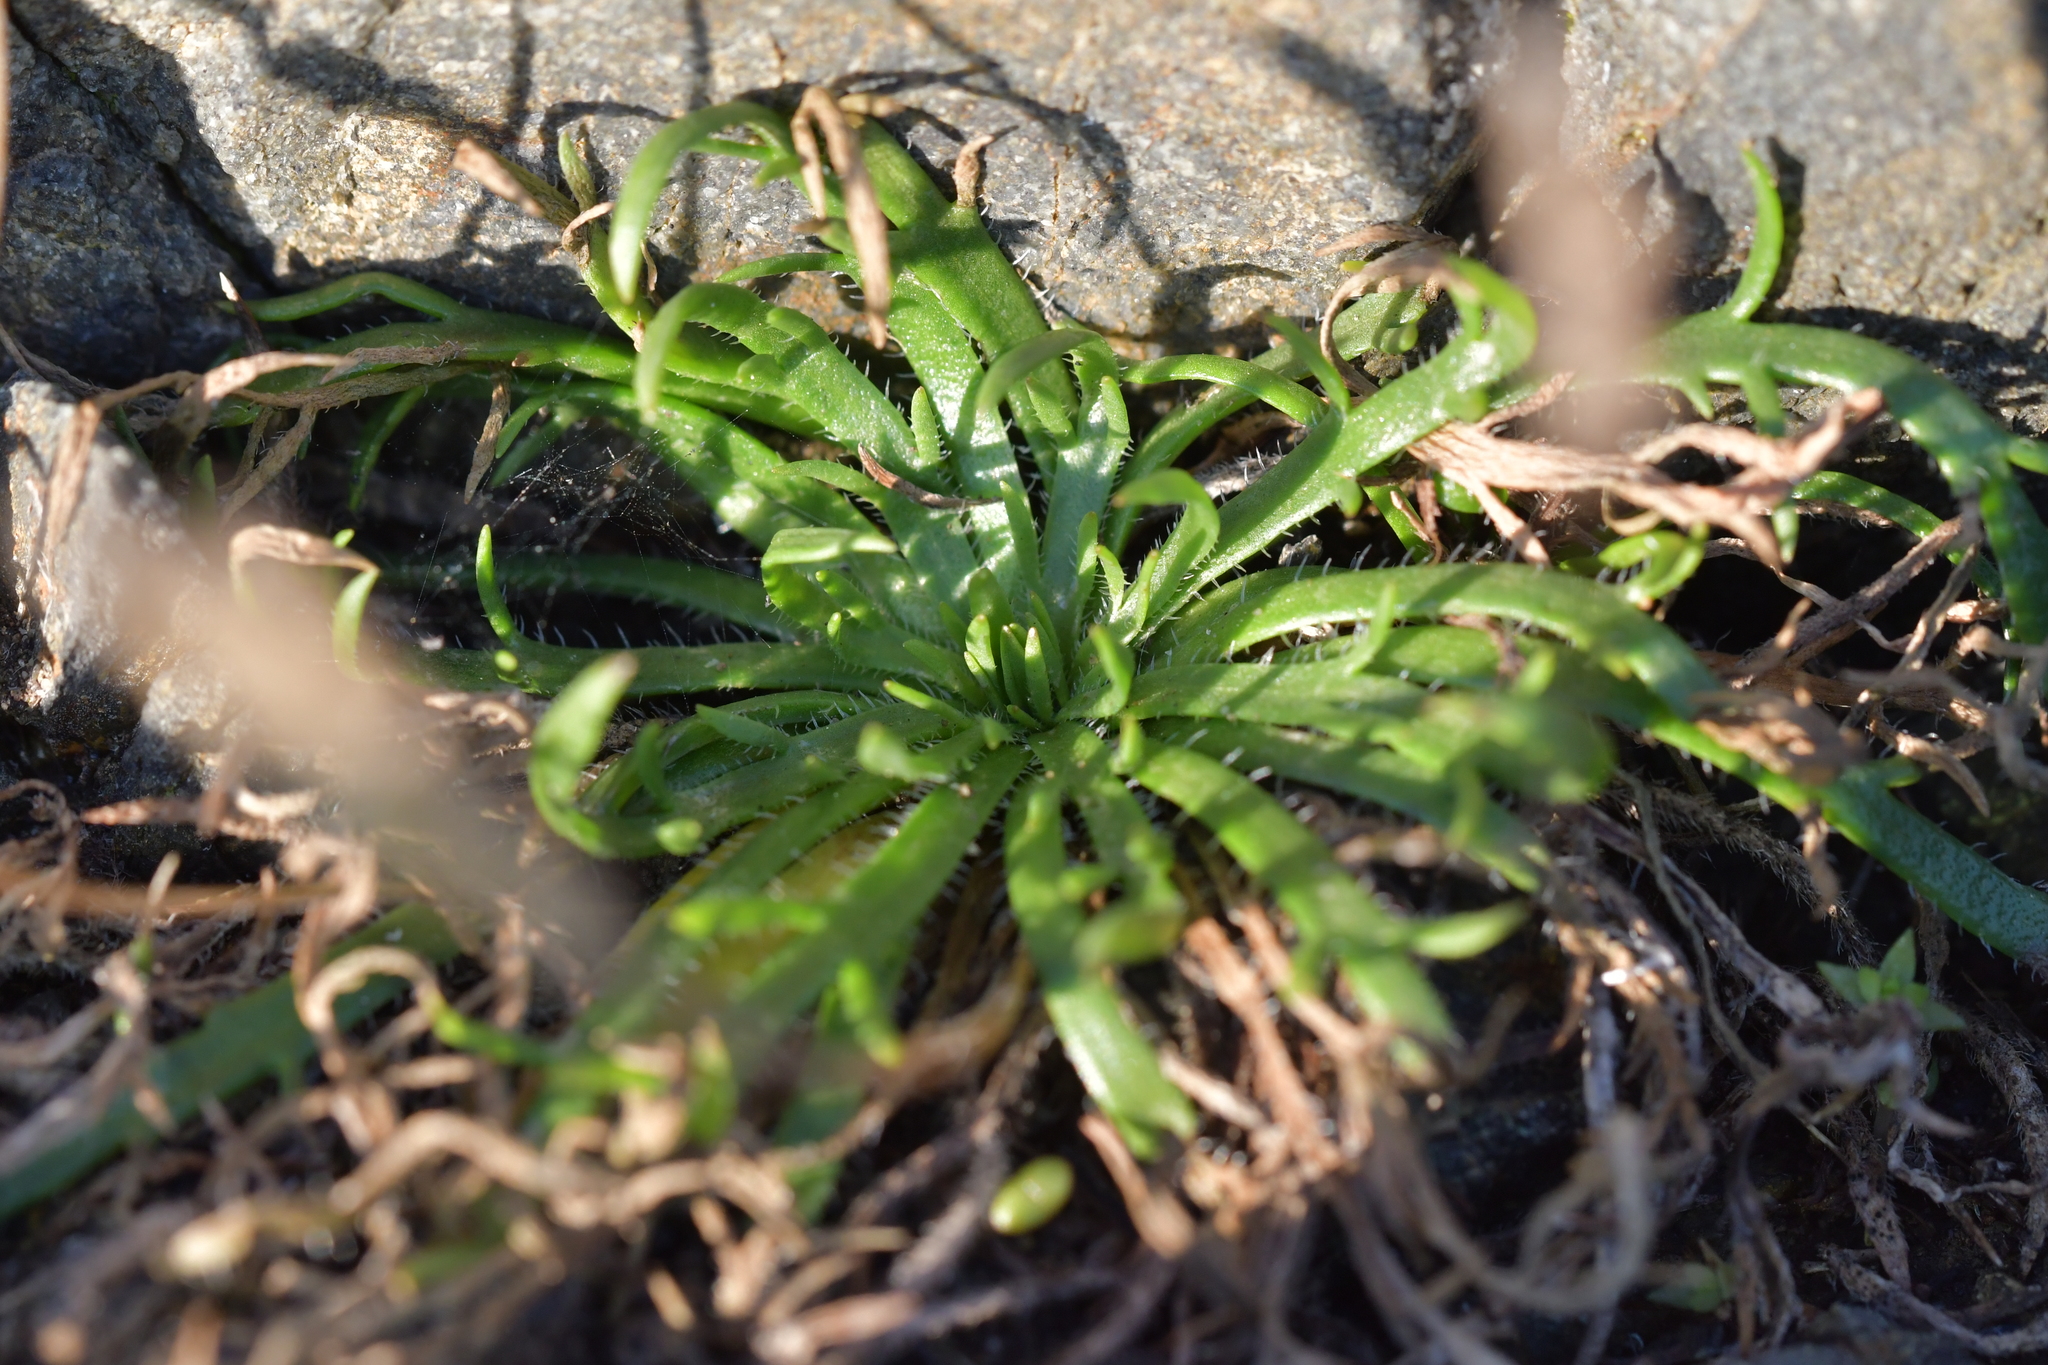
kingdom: Plantae
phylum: Tracheophyta
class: Magnoliopsida
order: Lamiales
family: Plantaginaceae
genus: Plantago
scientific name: Plantago coronopus
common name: Buck's-horn plantain
